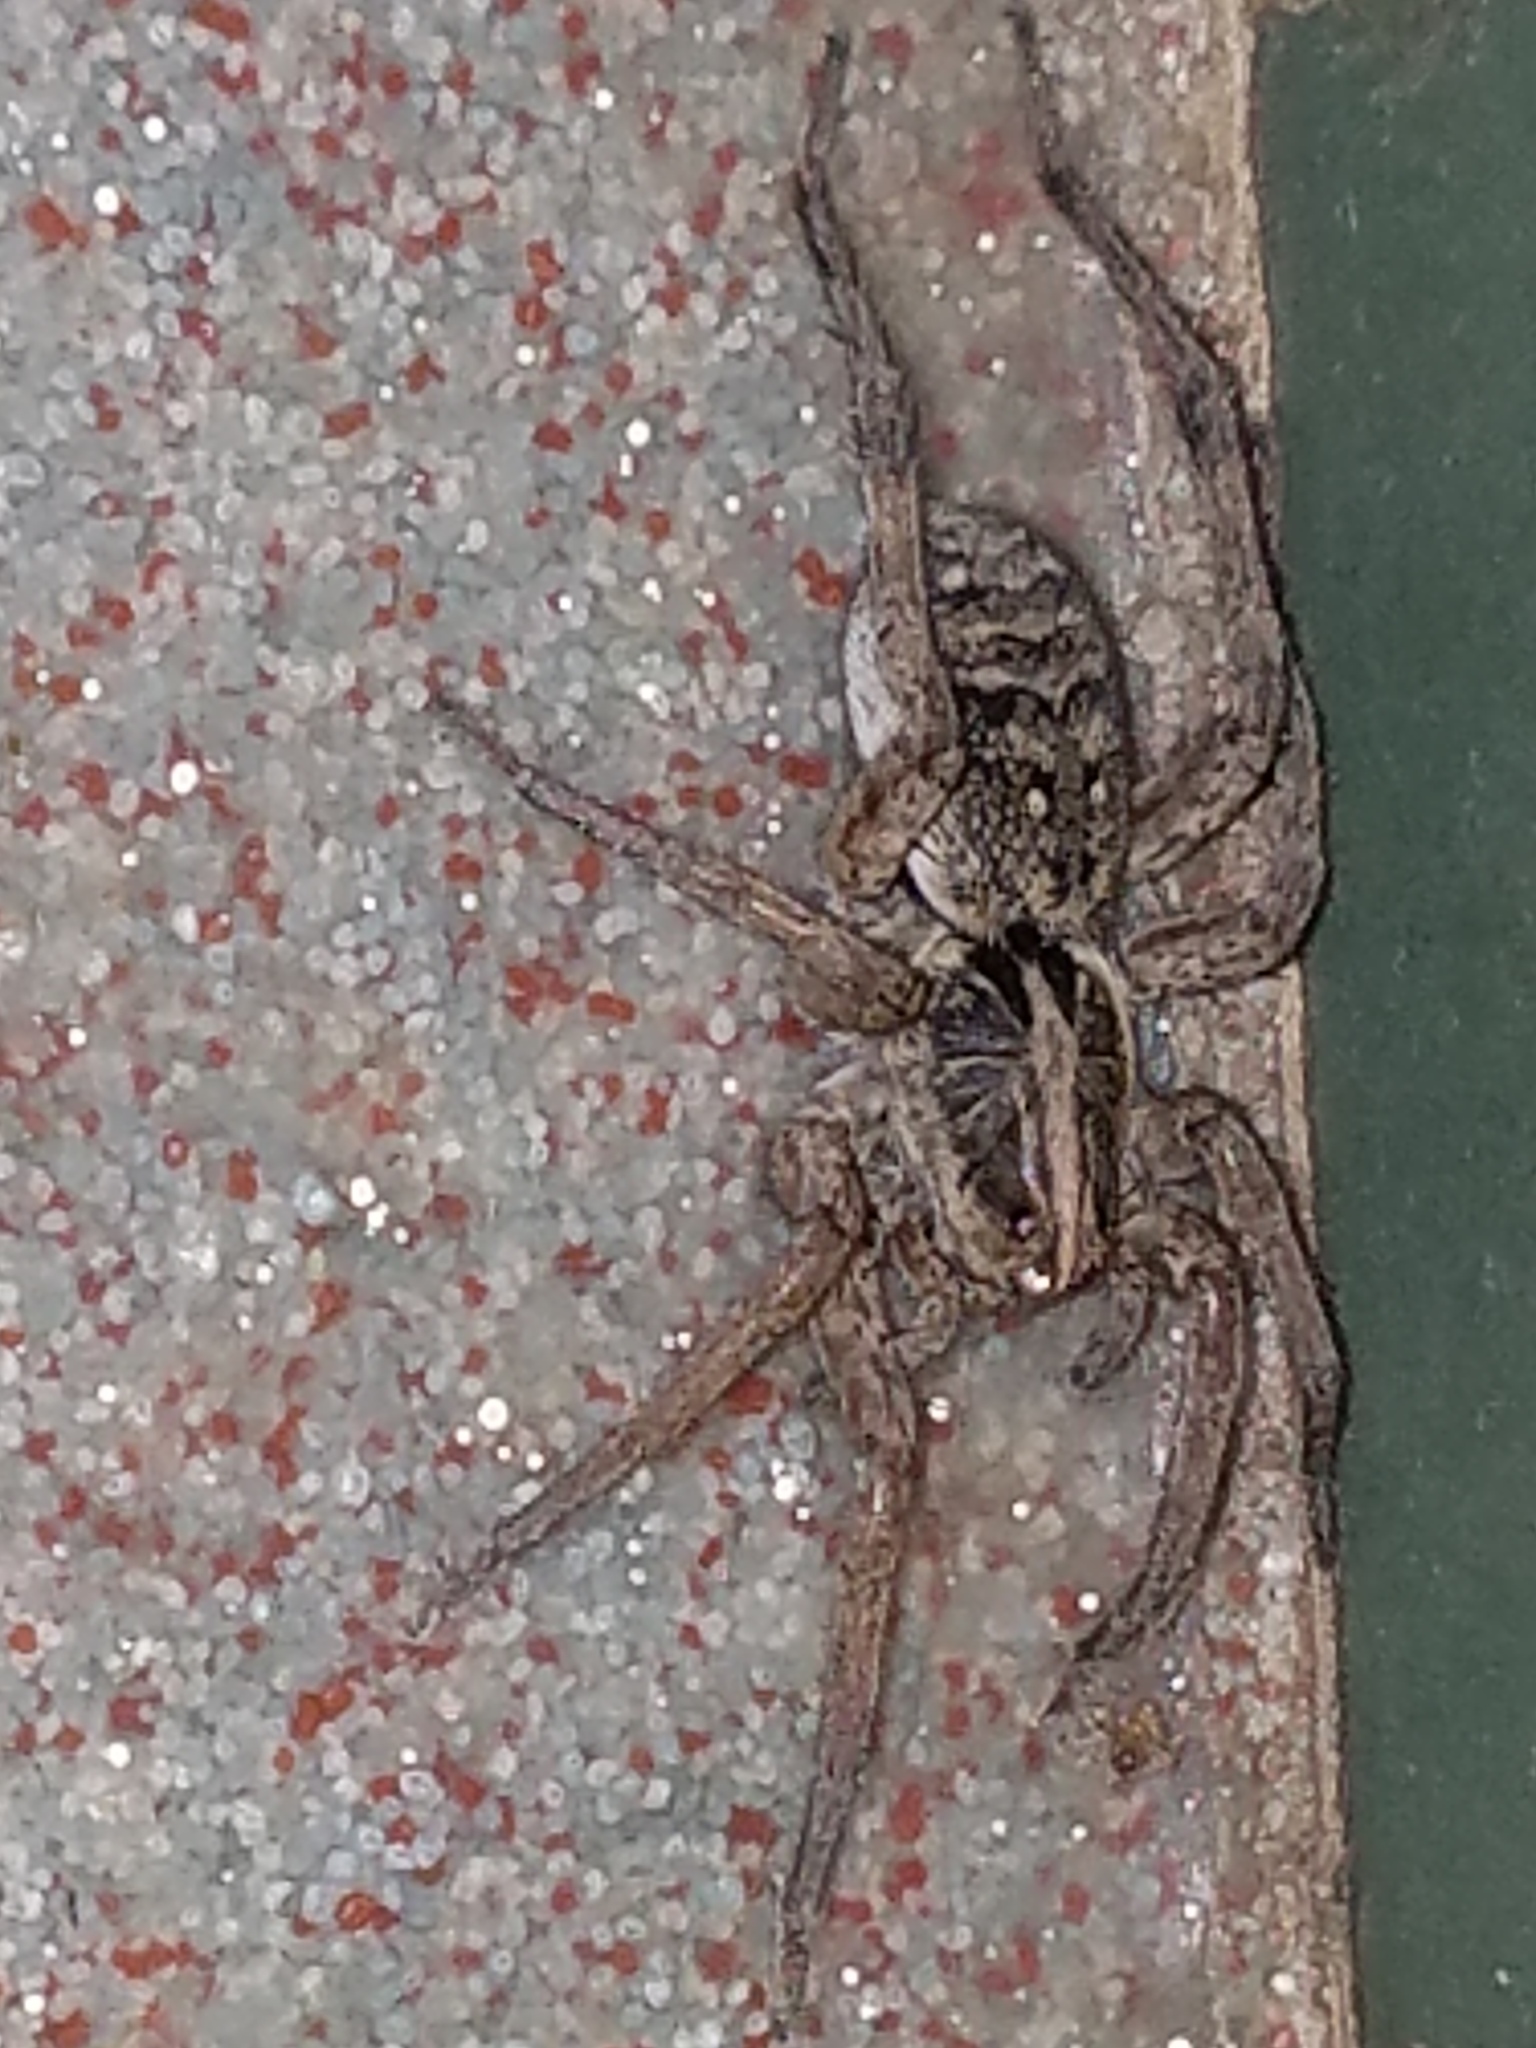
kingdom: Animalia
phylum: Arthropoda
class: Arachnida
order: Araneae
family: Lycosidae
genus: Hogna
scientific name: Hogna antelucana
